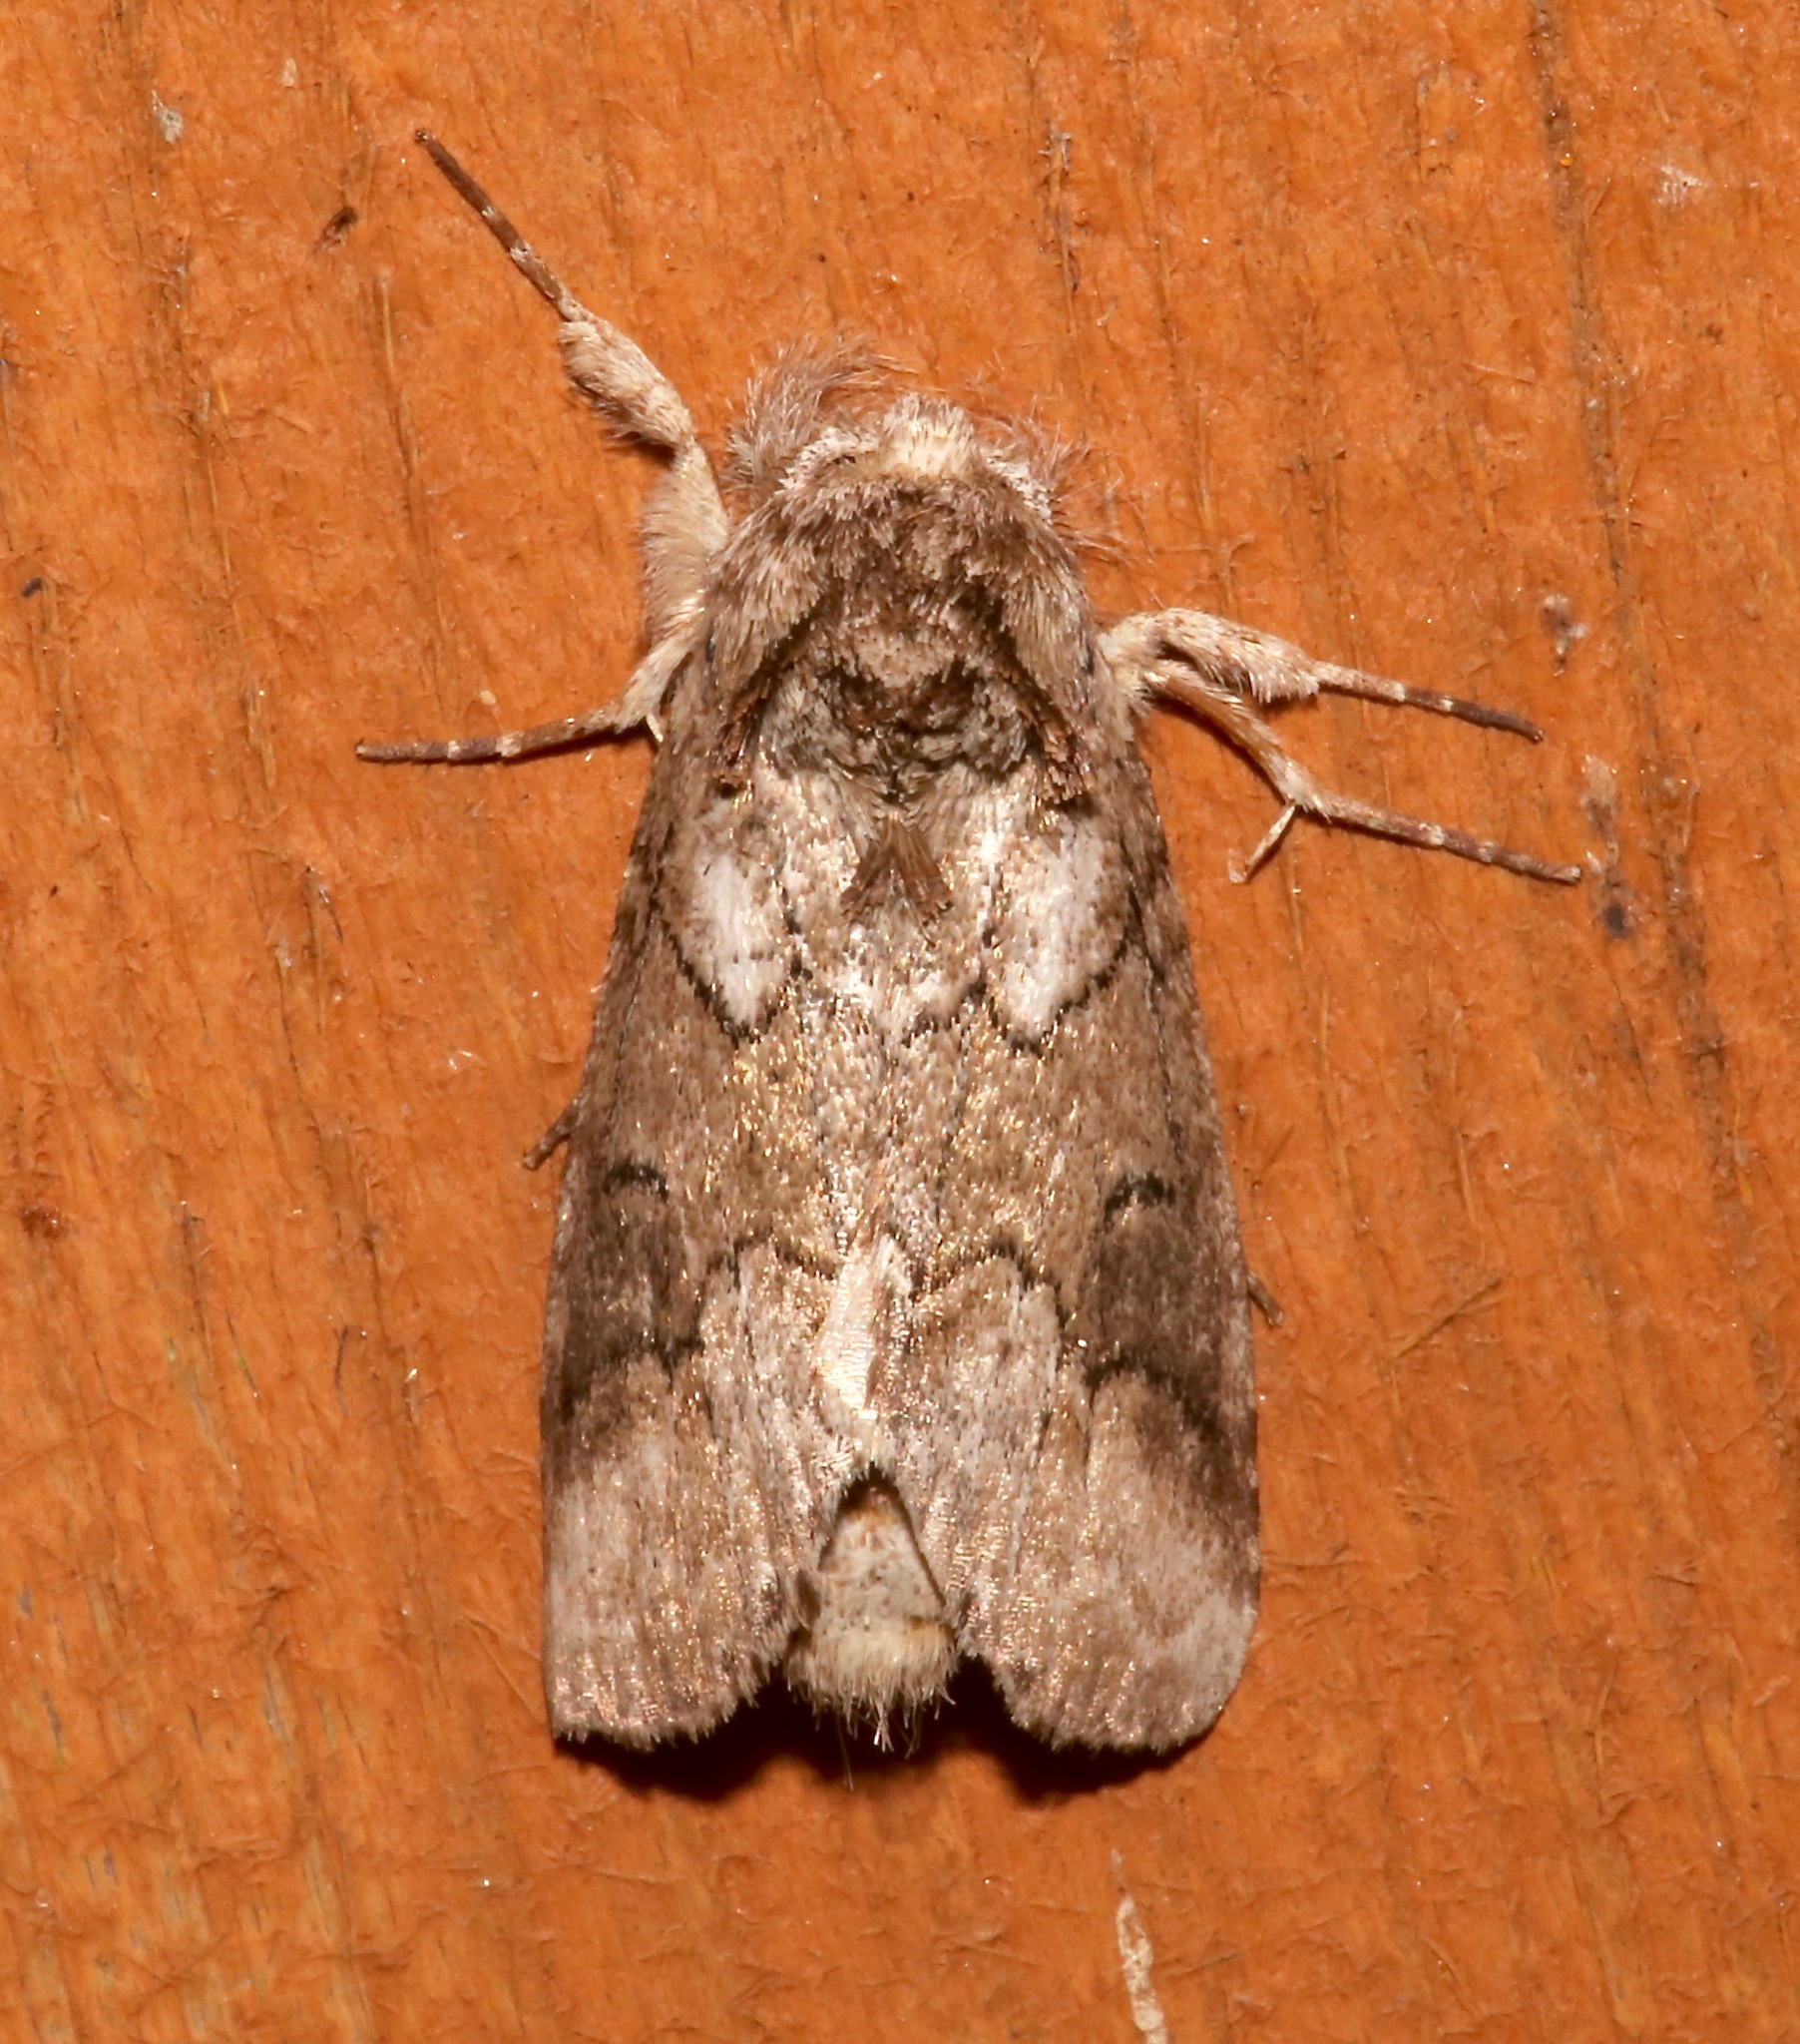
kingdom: Animalia
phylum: Arthropoda
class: Insecta
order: Lepidoptera
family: Notodontidae
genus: Lochmaeus
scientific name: Lochmaeus bilineata
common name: Double-lined prominent
